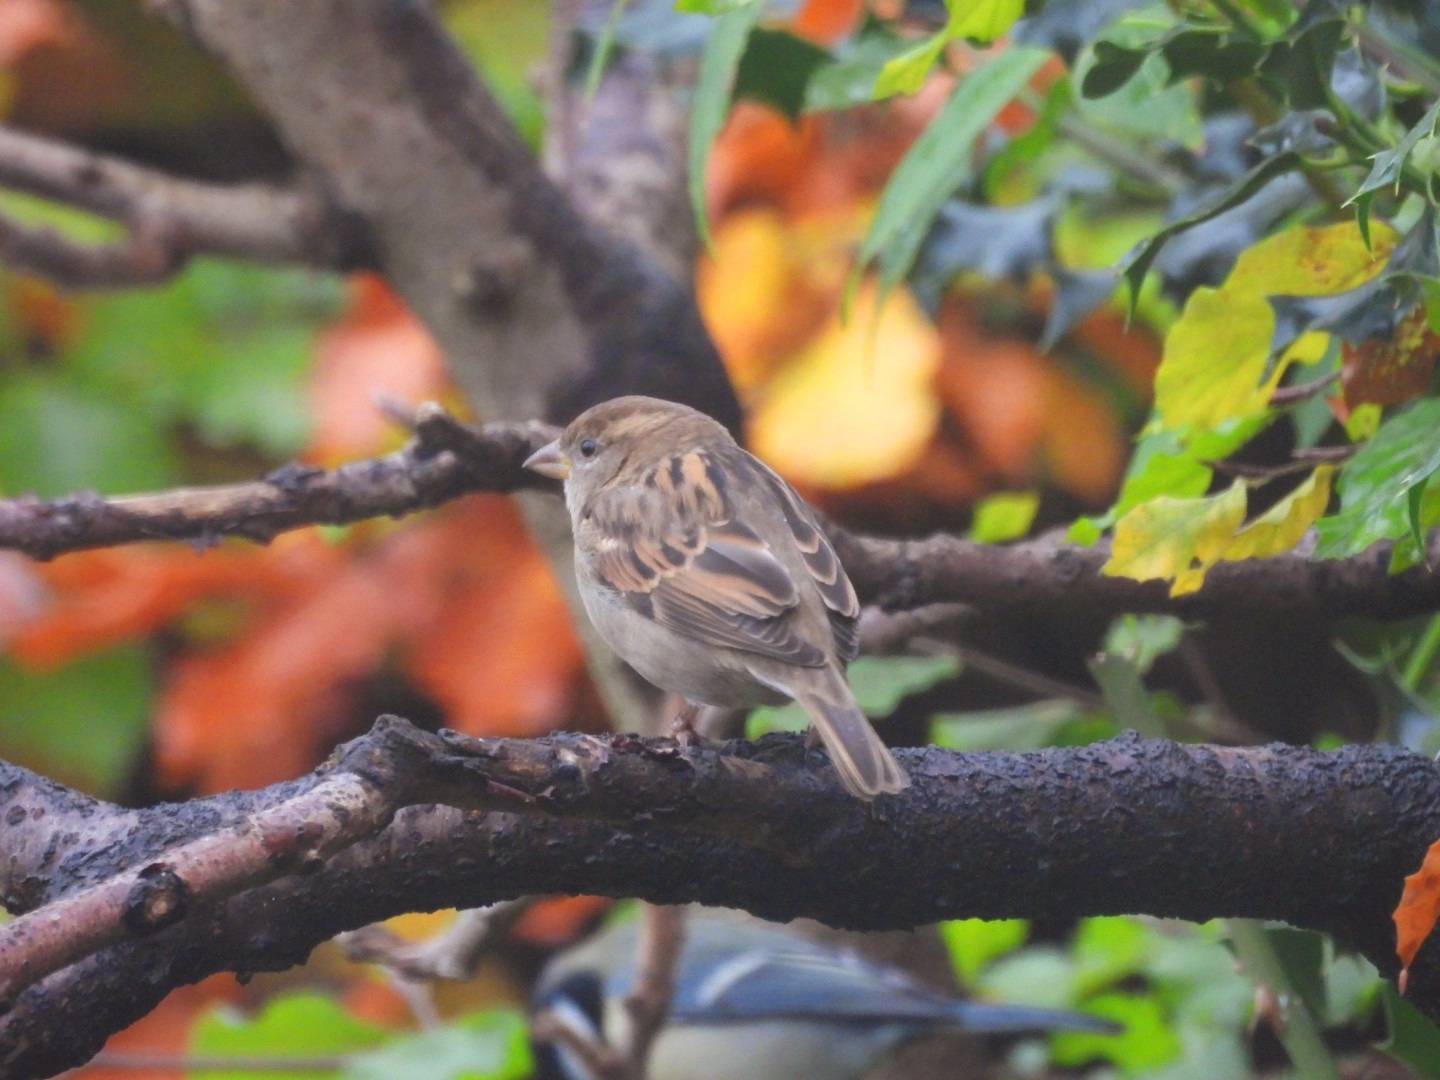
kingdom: Animalia
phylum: Chordata
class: Aves
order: Passeriformes
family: Passeridae
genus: Passer
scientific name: Passer domesticus
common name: House sparrow
